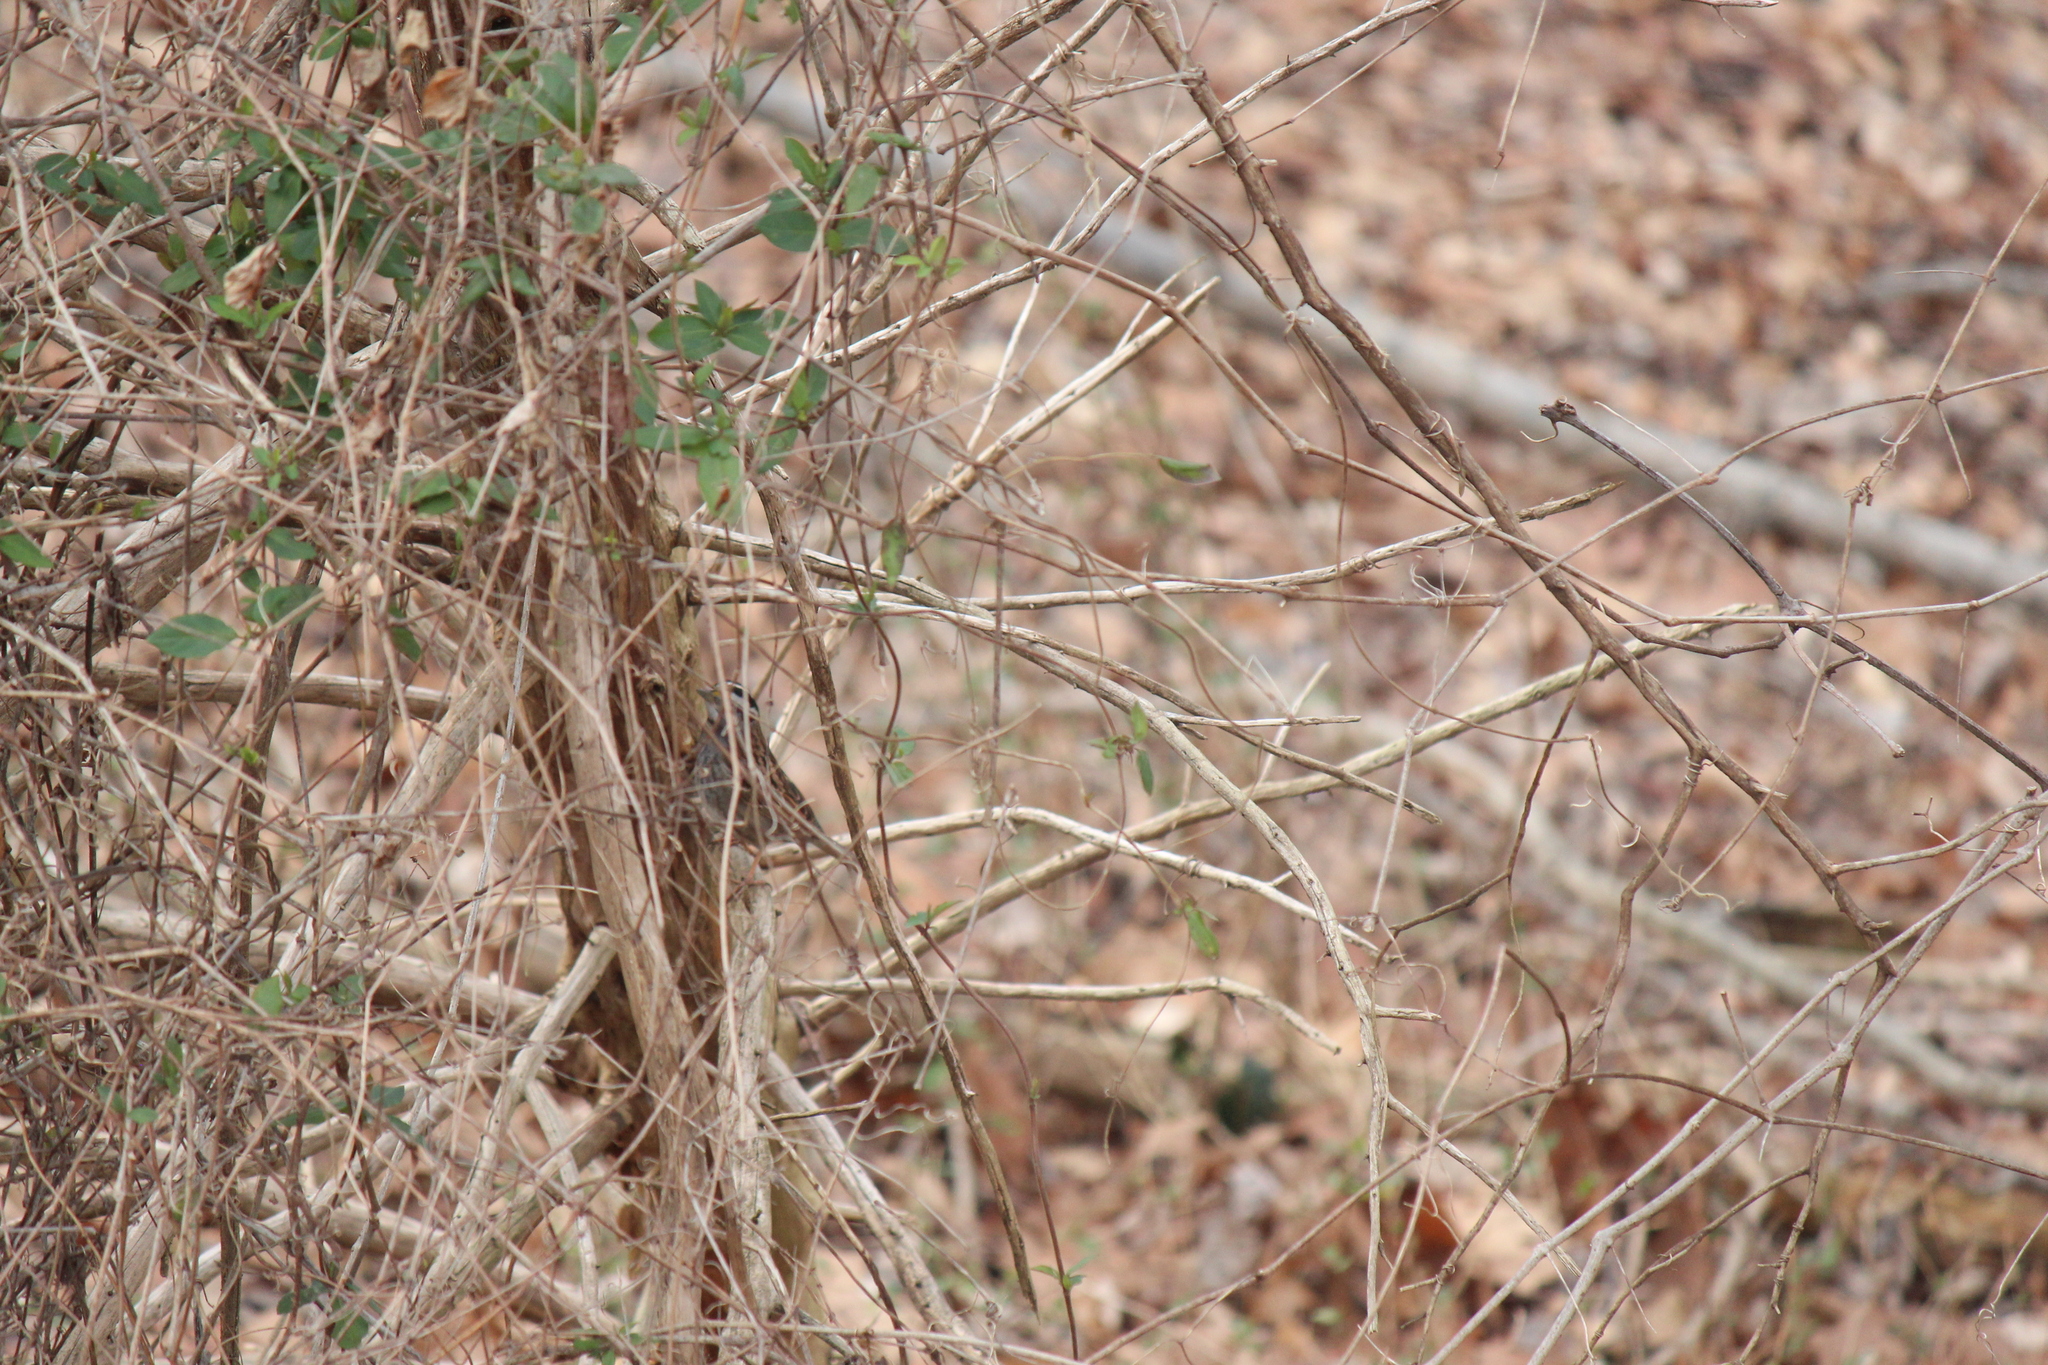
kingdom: Animalia
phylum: Chordata
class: Aves
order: Passeriformes
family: Passerellidae
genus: Zonotrichia
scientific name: Zonotrichia albicollis
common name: White-throated sparrow
